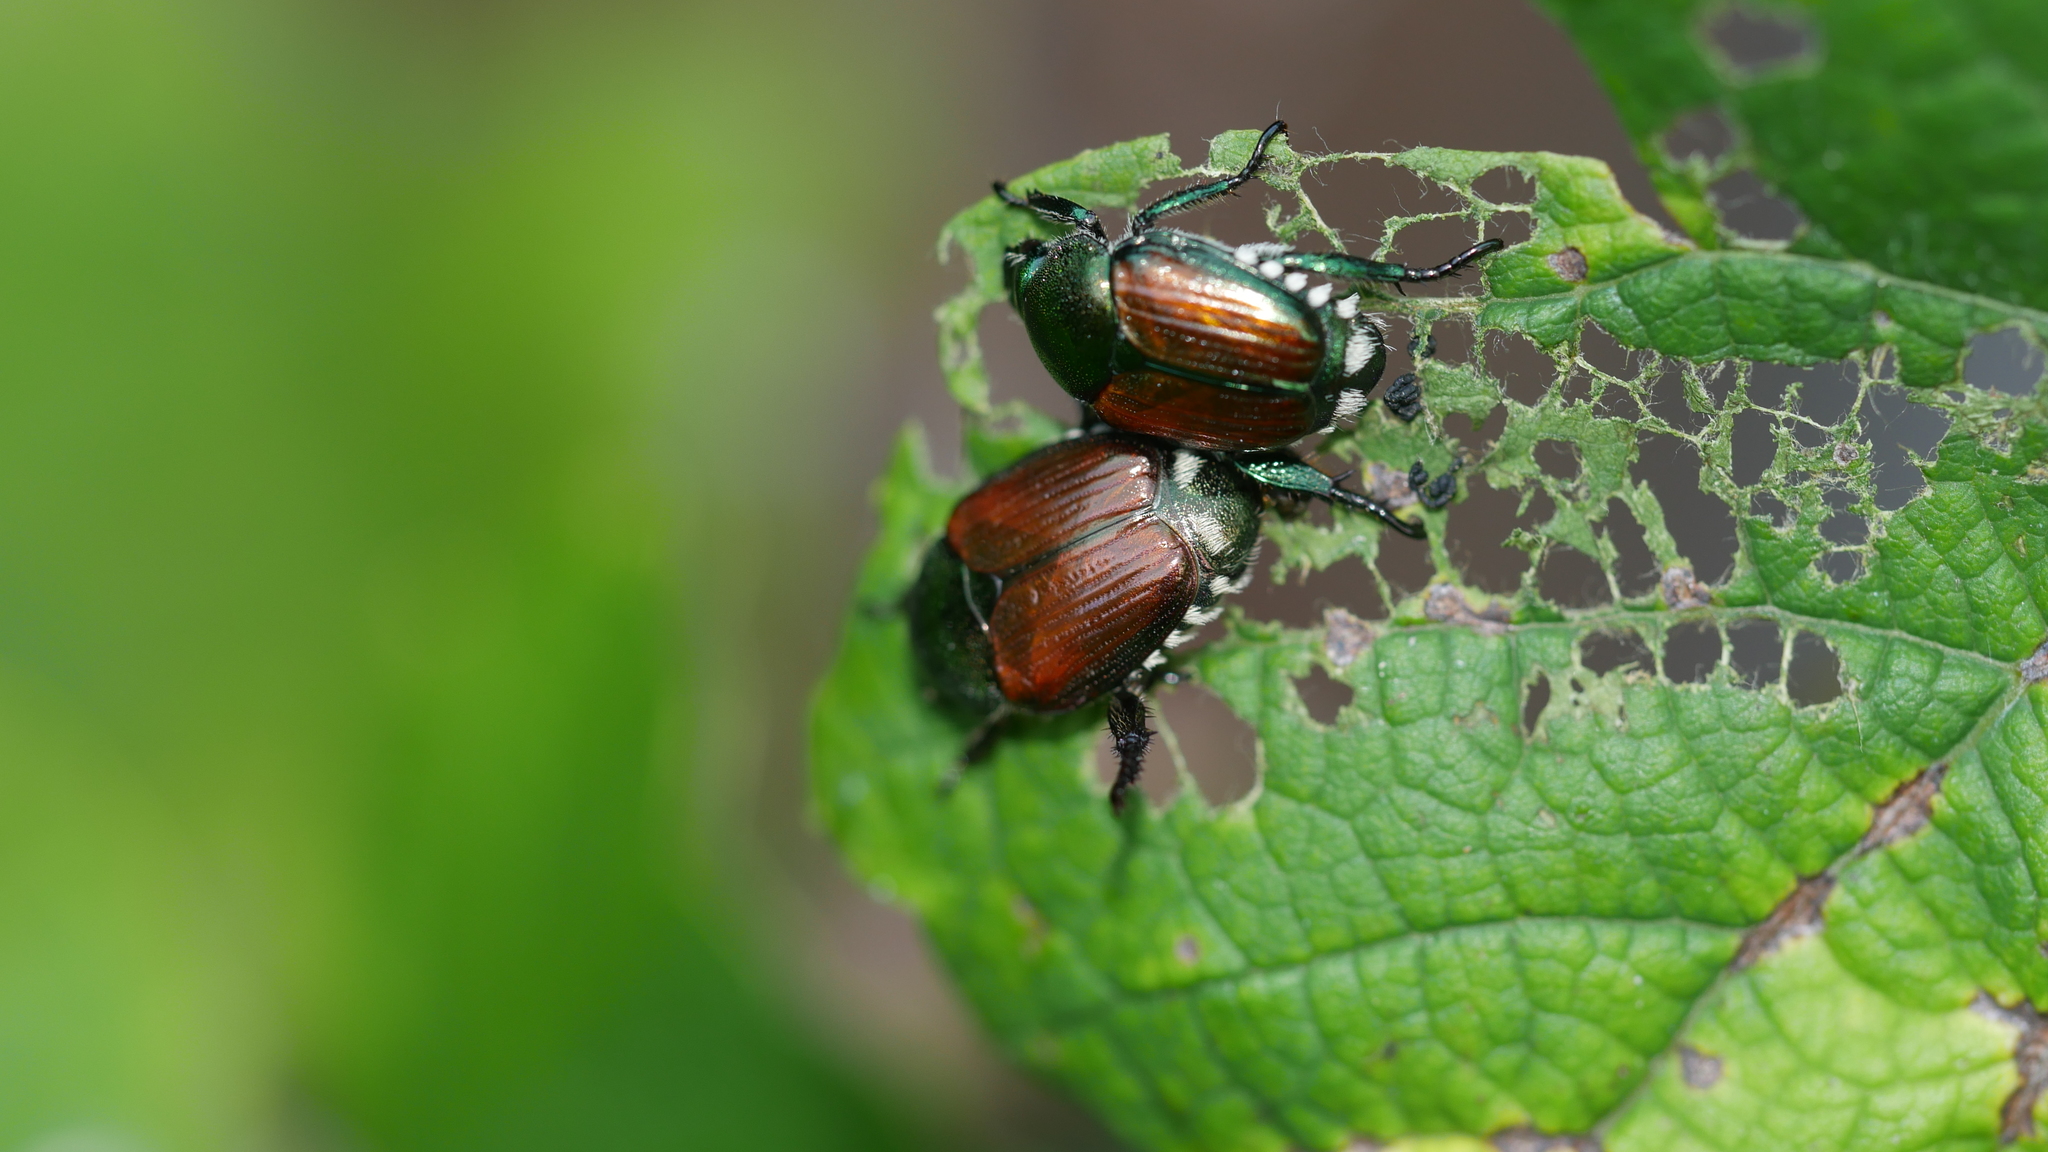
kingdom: Animalia
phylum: Arthropoda
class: Insecta
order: Coleoptera
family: Scarabaeidae
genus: Popillia
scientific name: Popillia japonica
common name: Japanese beetle
